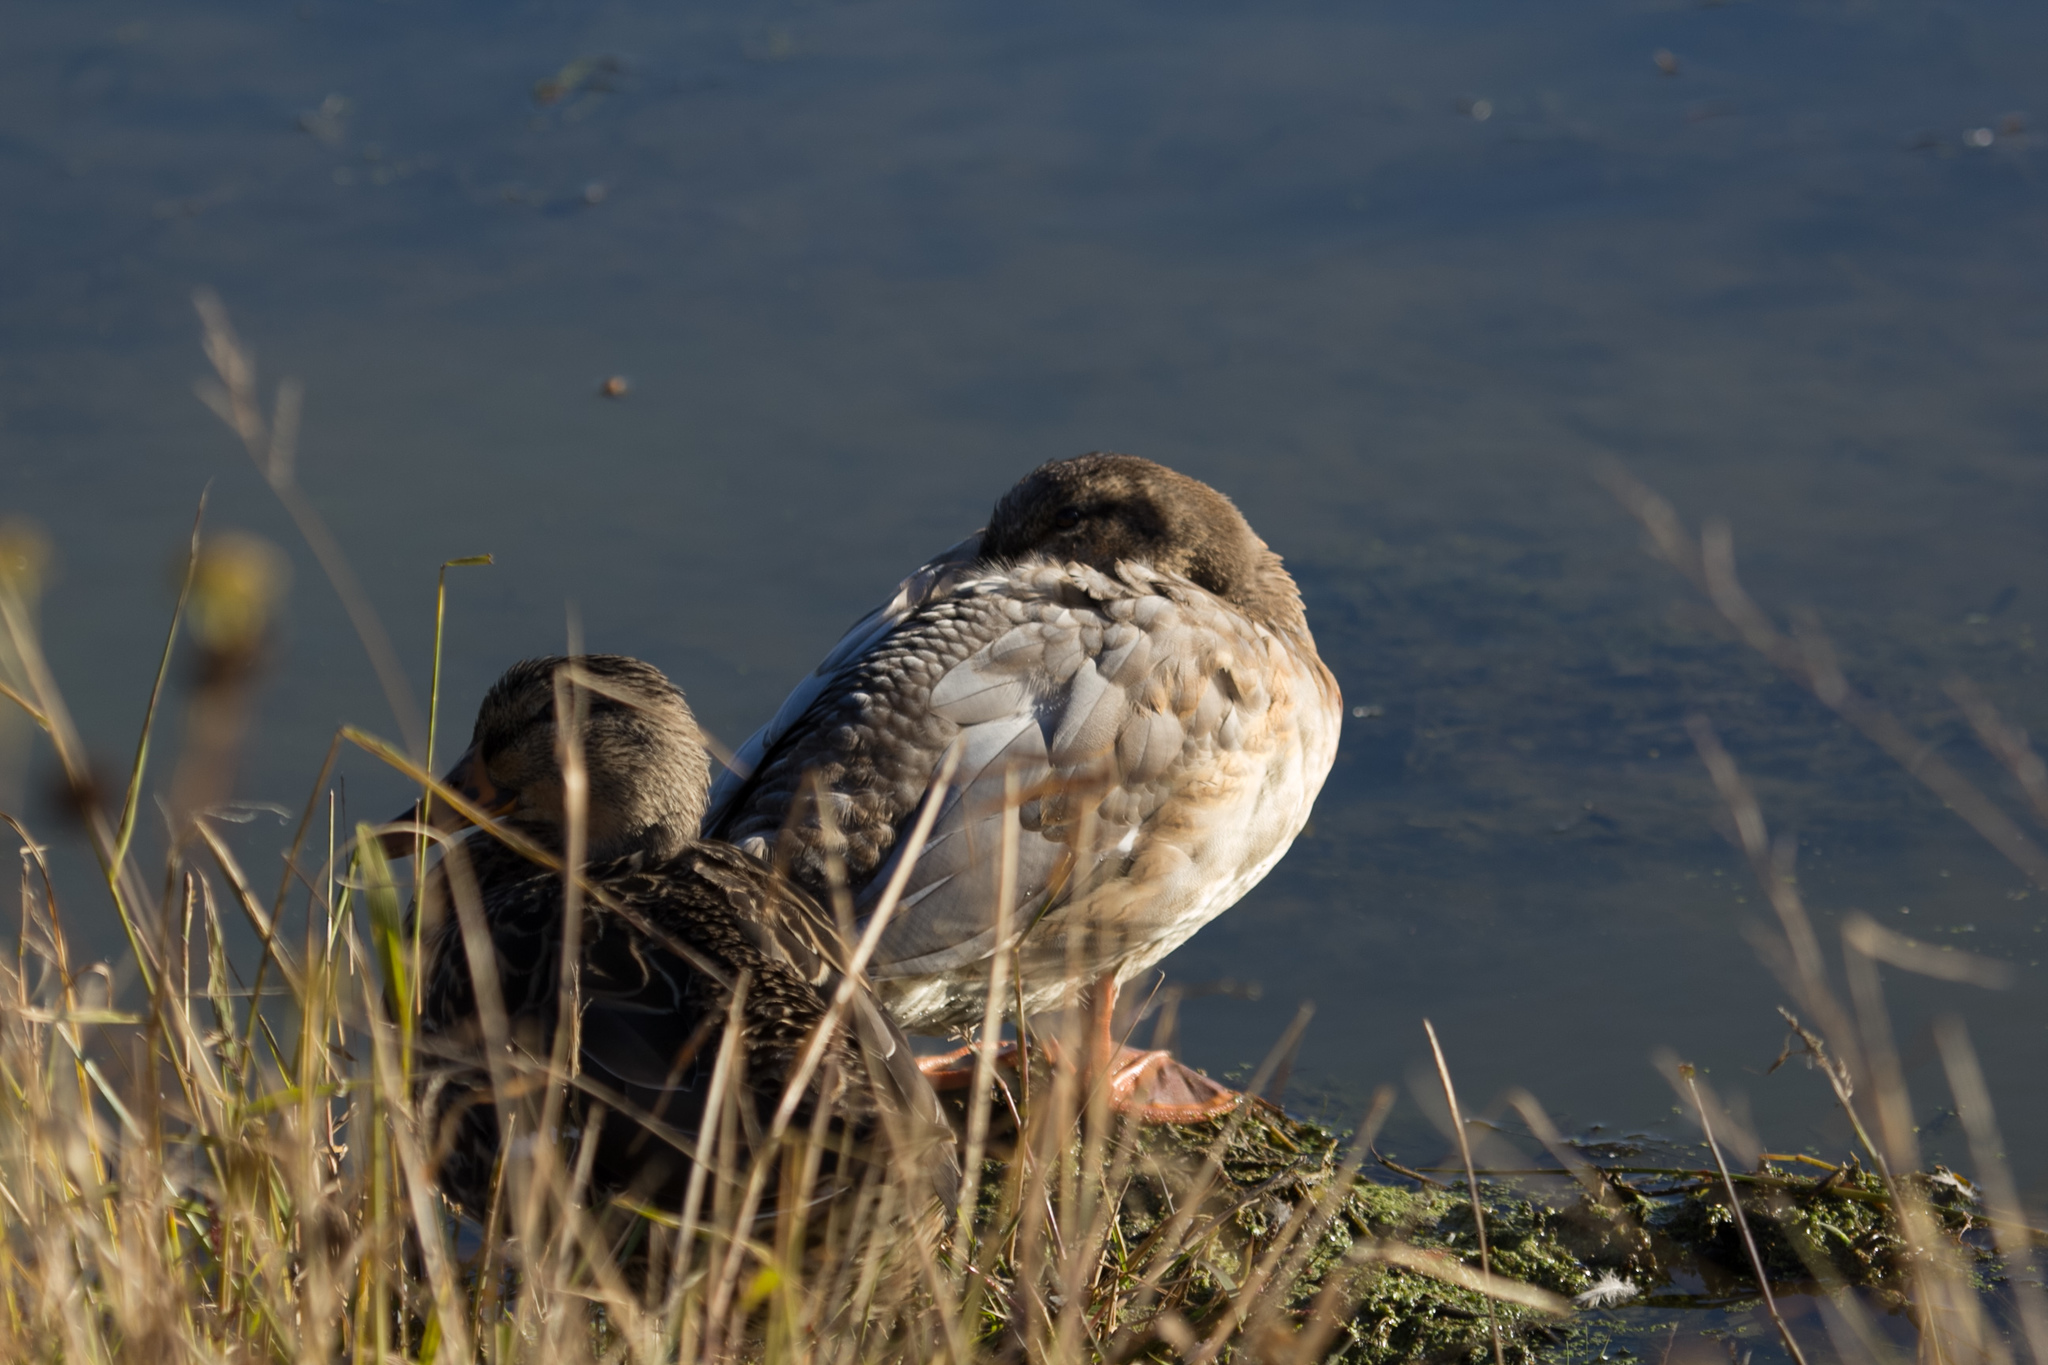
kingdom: Animalia
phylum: Chordata
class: Aves
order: Anseriformes
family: Anatidae
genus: Anas
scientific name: Anas platyrhynchos
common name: Mallard
